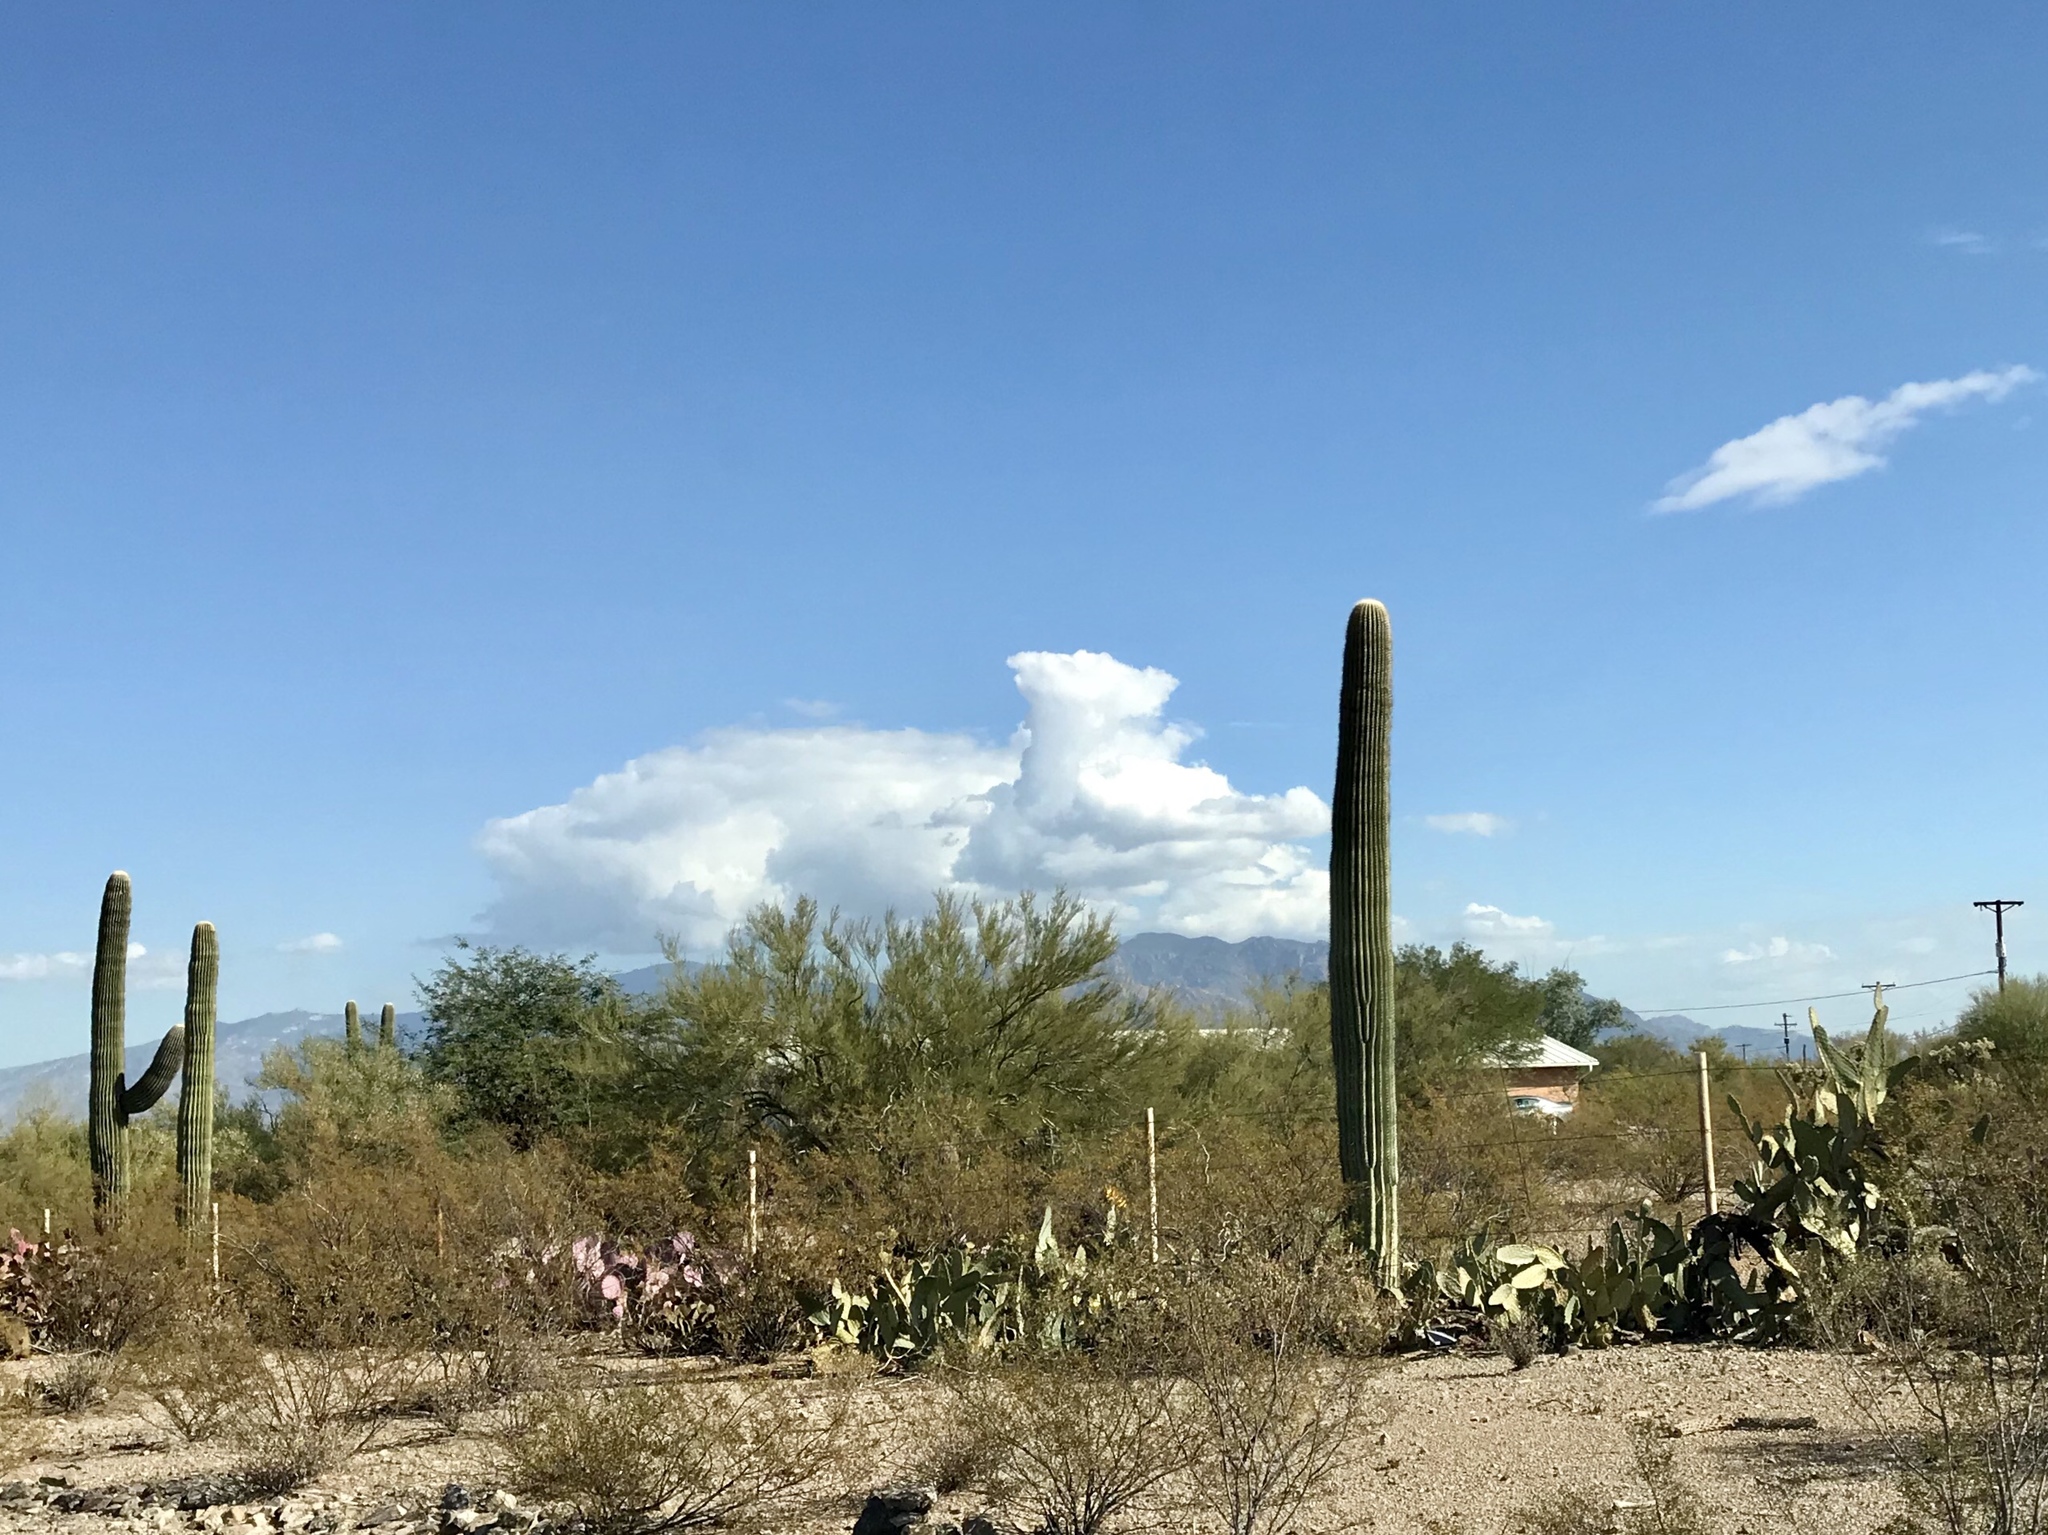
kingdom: Plantae
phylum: Tracheophyta
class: Magnoliopsida
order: Caryophyllales
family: Cactaceae
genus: Carnegiea
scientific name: Carnegiea gigantea
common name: Saguaro
